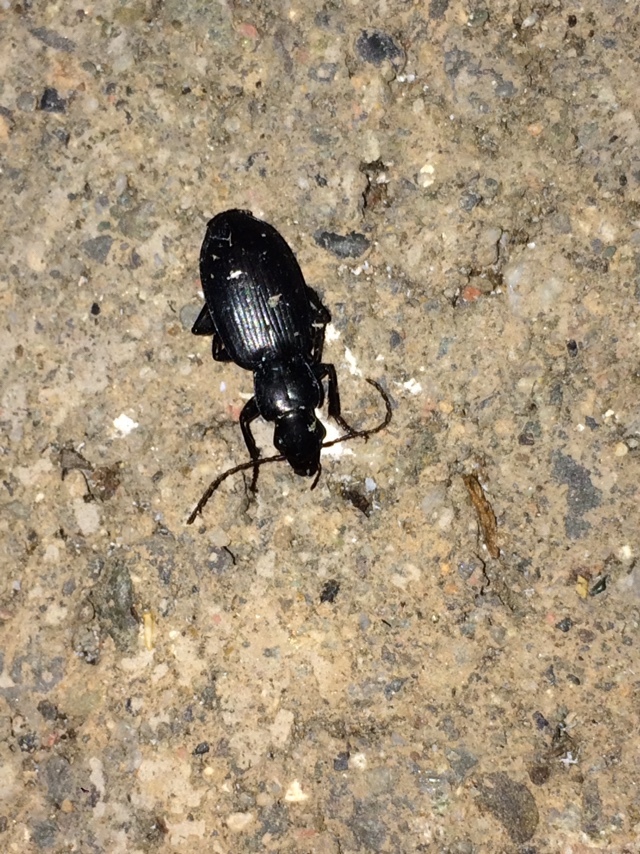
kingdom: Animalia
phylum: Arthropoda
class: Insecta
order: Coleoptera
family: Carabidae
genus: Laemostenus
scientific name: Laemostenus complanatus
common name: Cosmopolitan ground beetle
